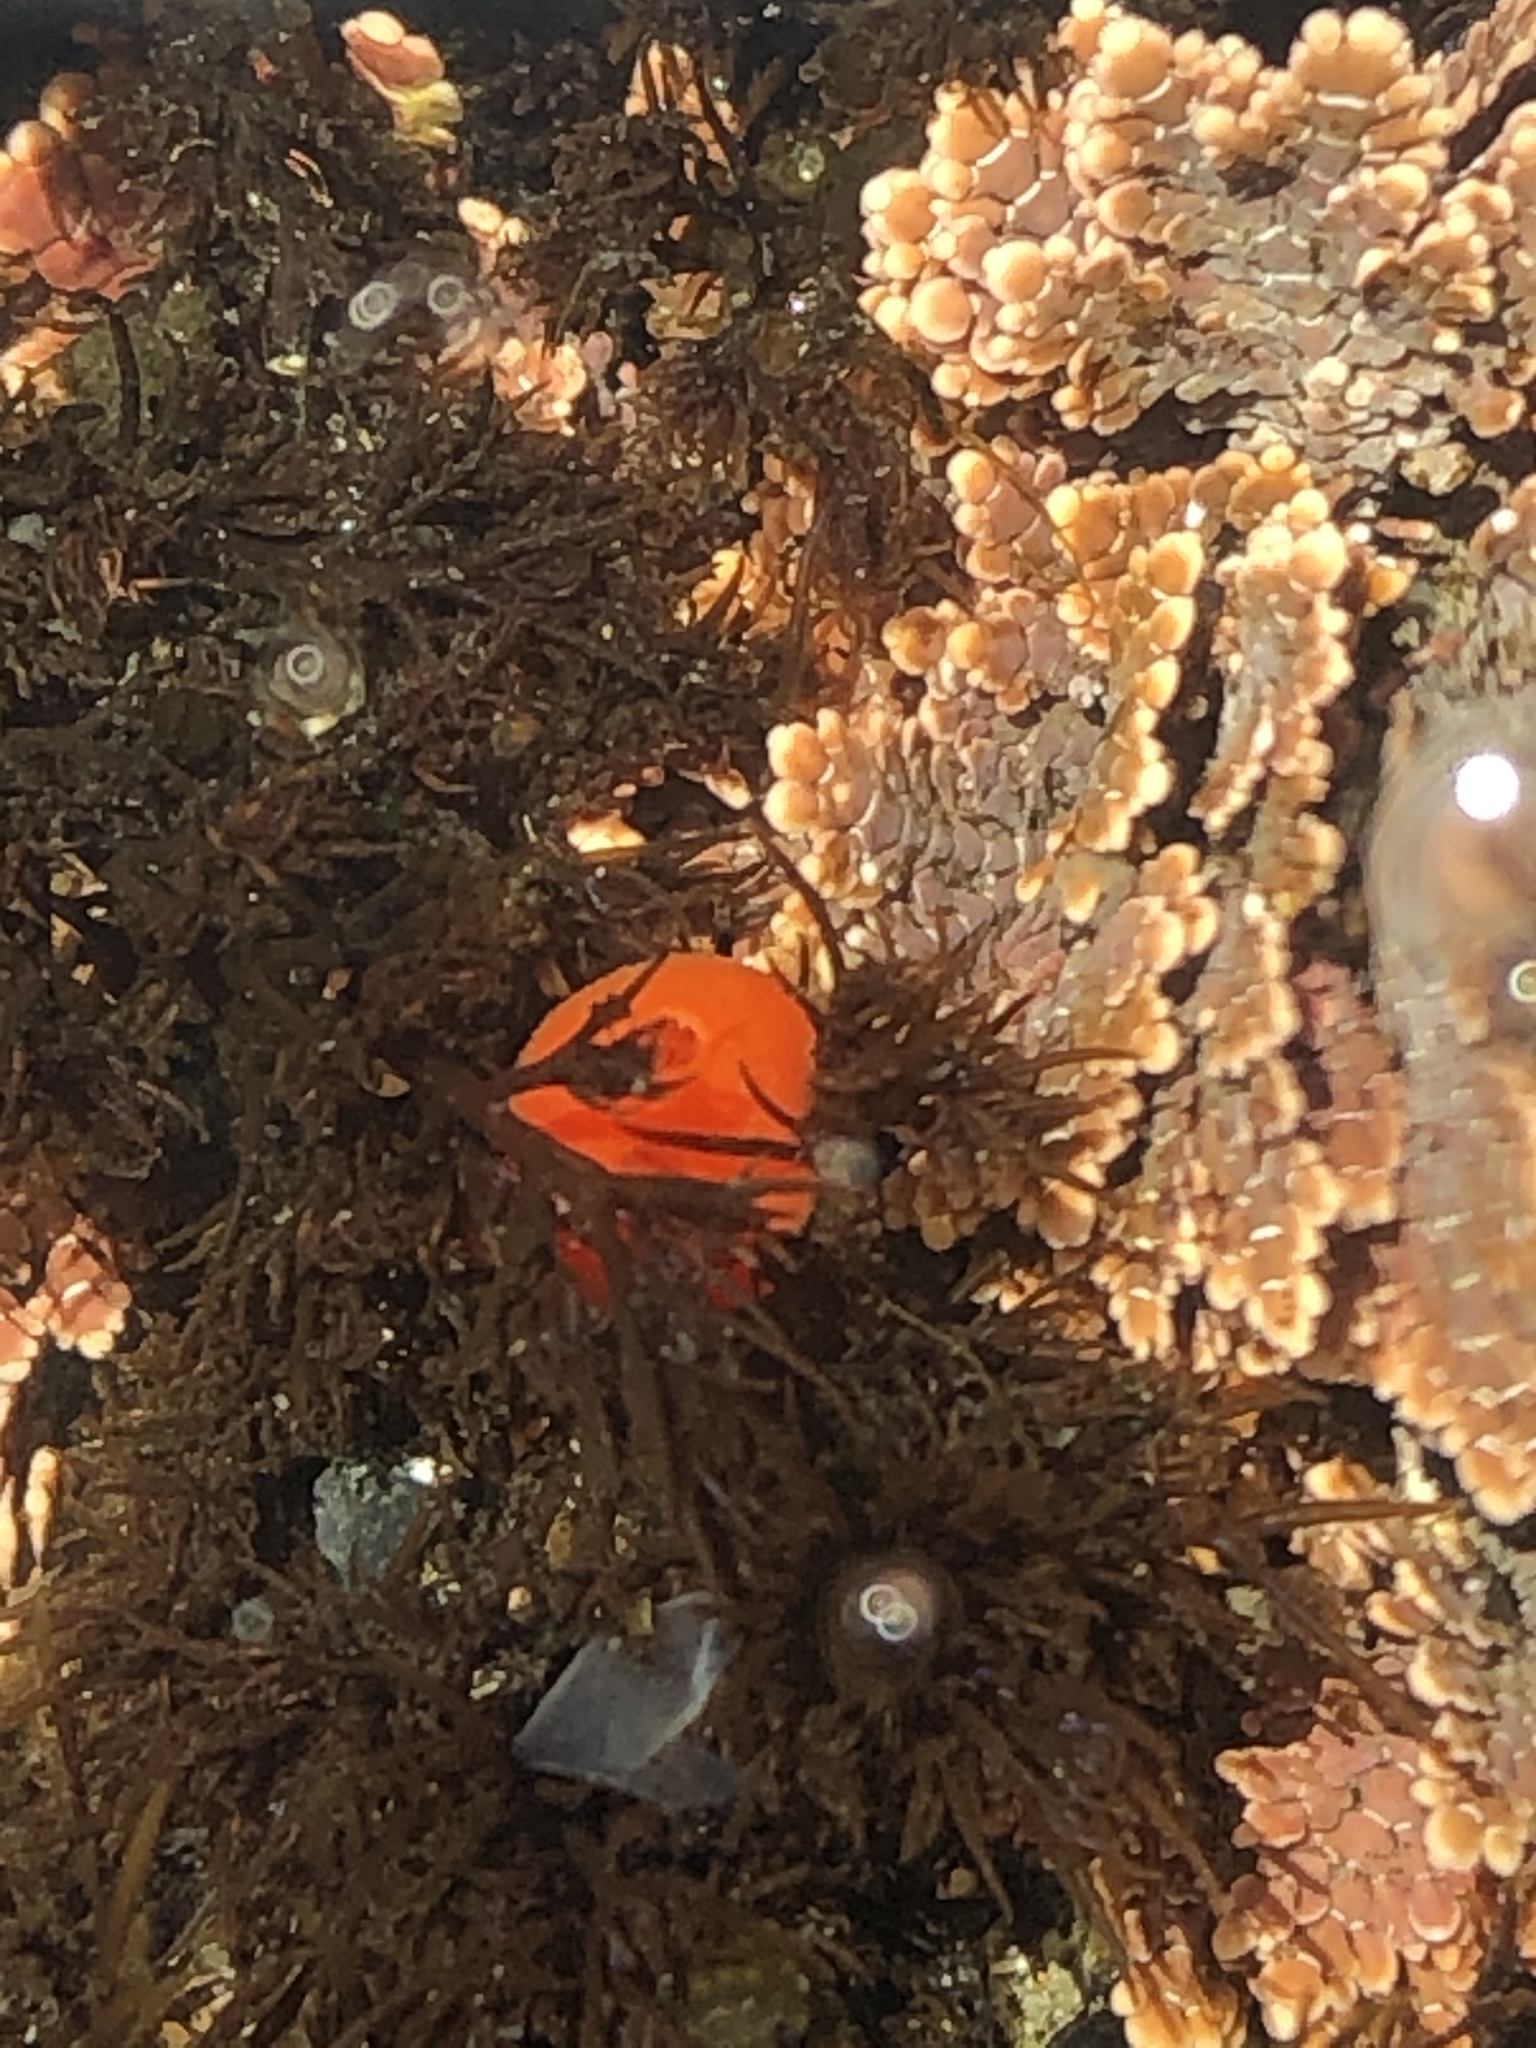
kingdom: Animalia
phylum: Mollusca
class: Gastropoda
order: Nudibranchia
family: Discodorididae
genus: Rostanga
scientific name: Rostanga pulchra
